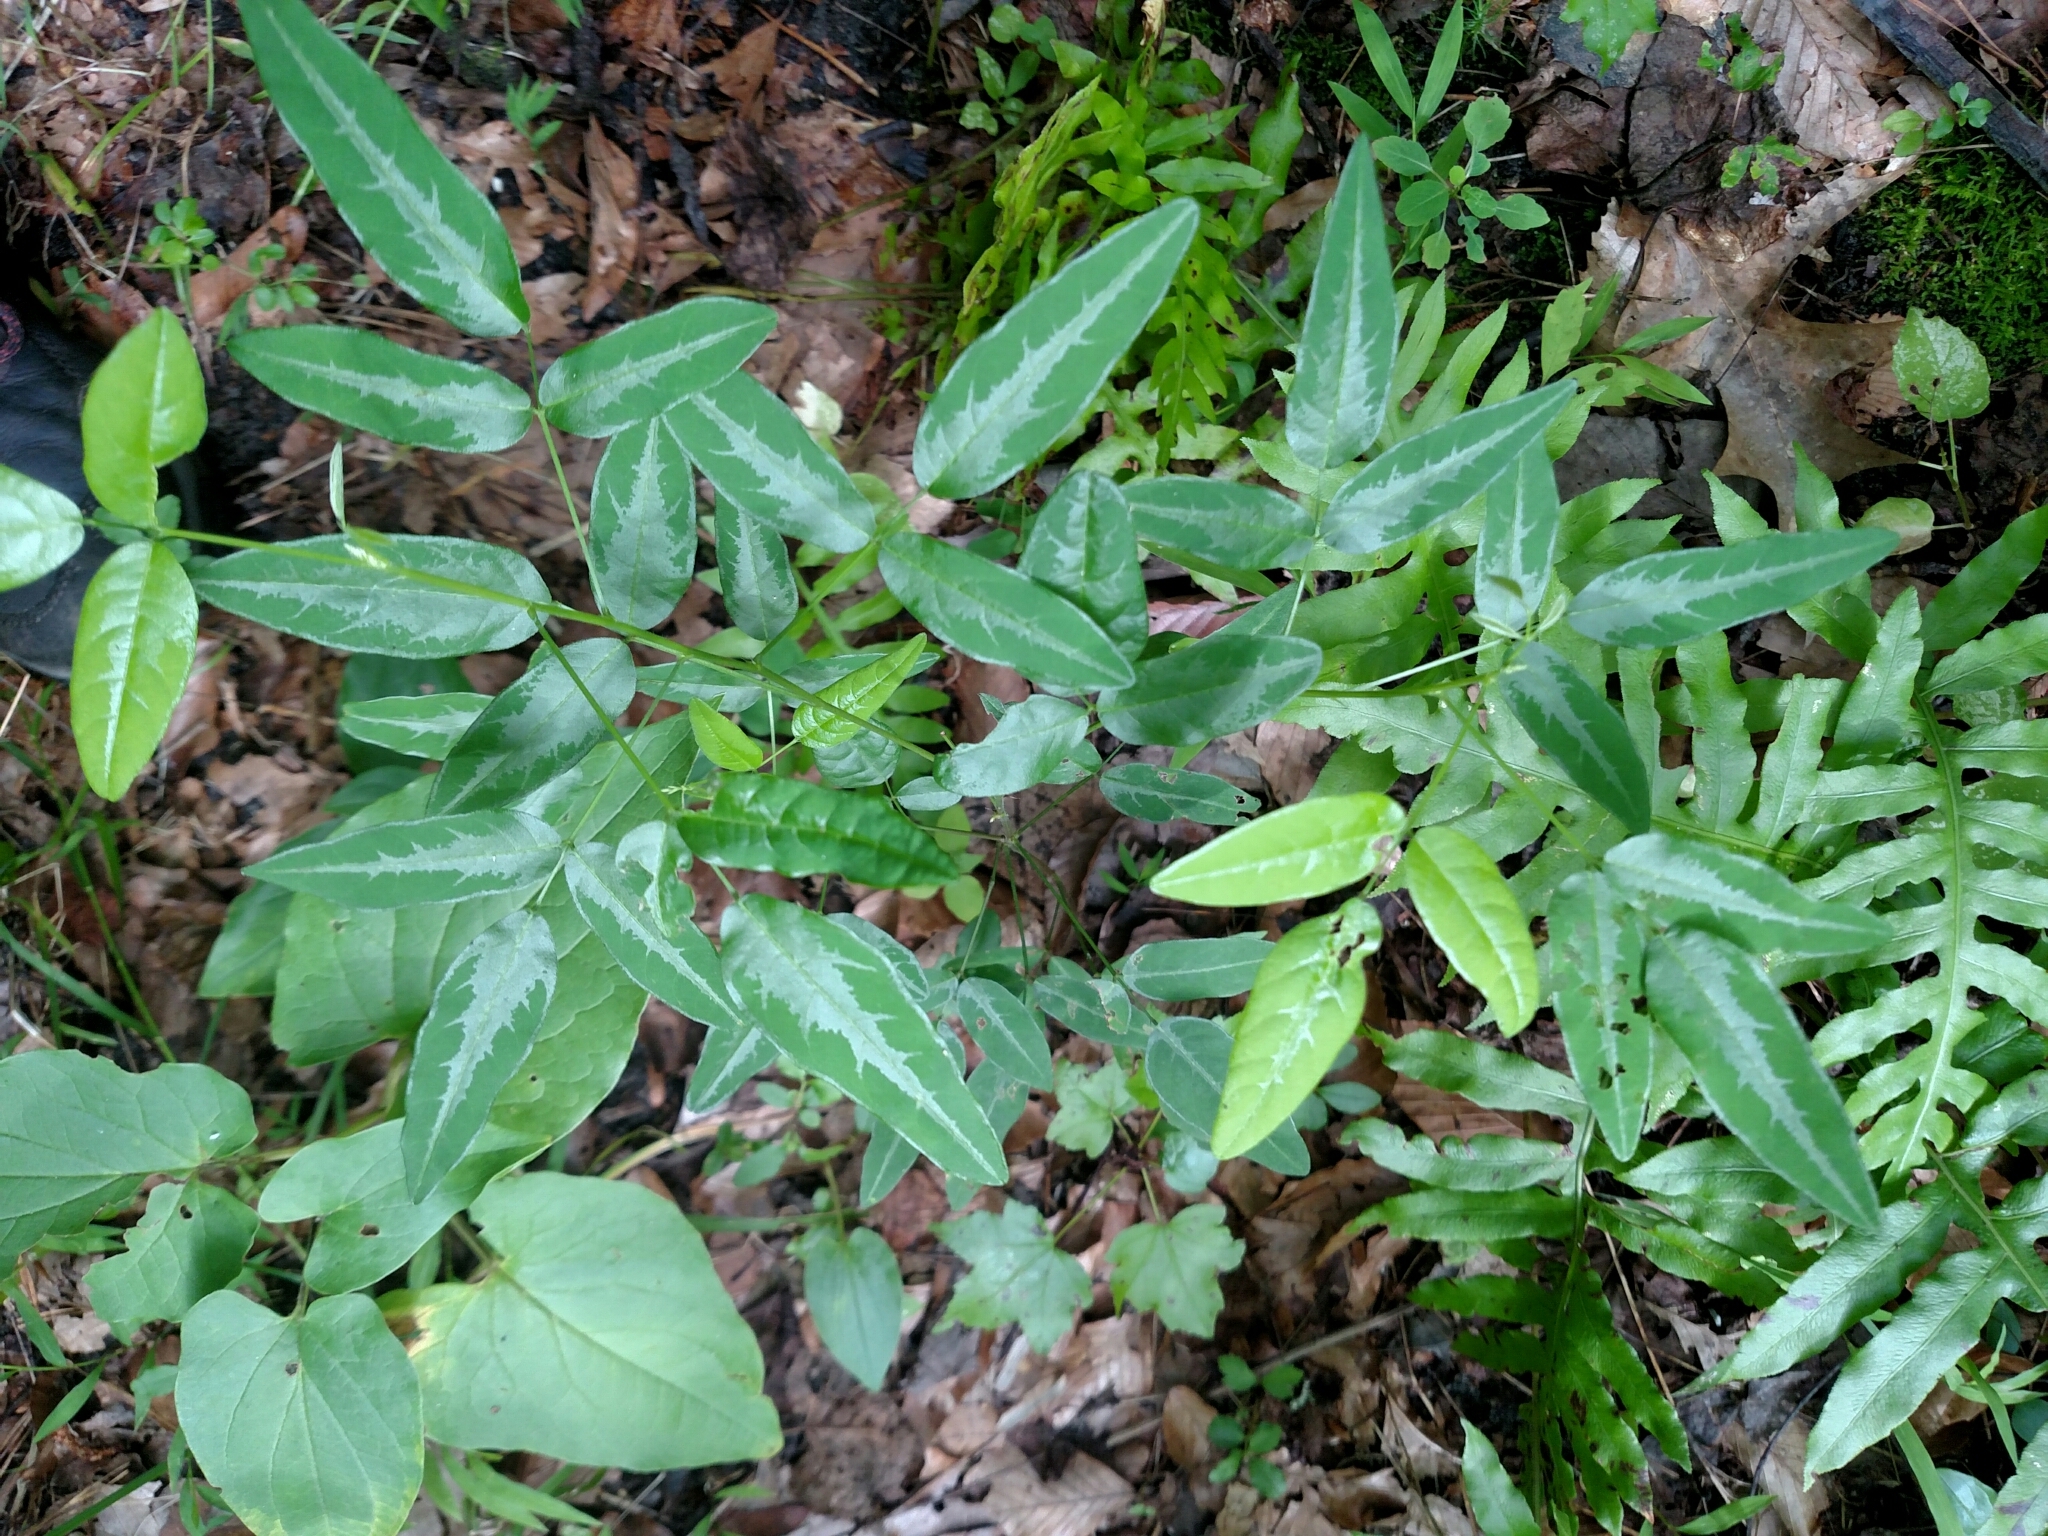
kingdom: Plantae
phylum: Tracheophyta
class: Magnoliopsida
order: Fabales
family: Fabaceae
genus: Desmodium
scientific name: Desmodium paniculatum
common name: Panicled tick-clover
